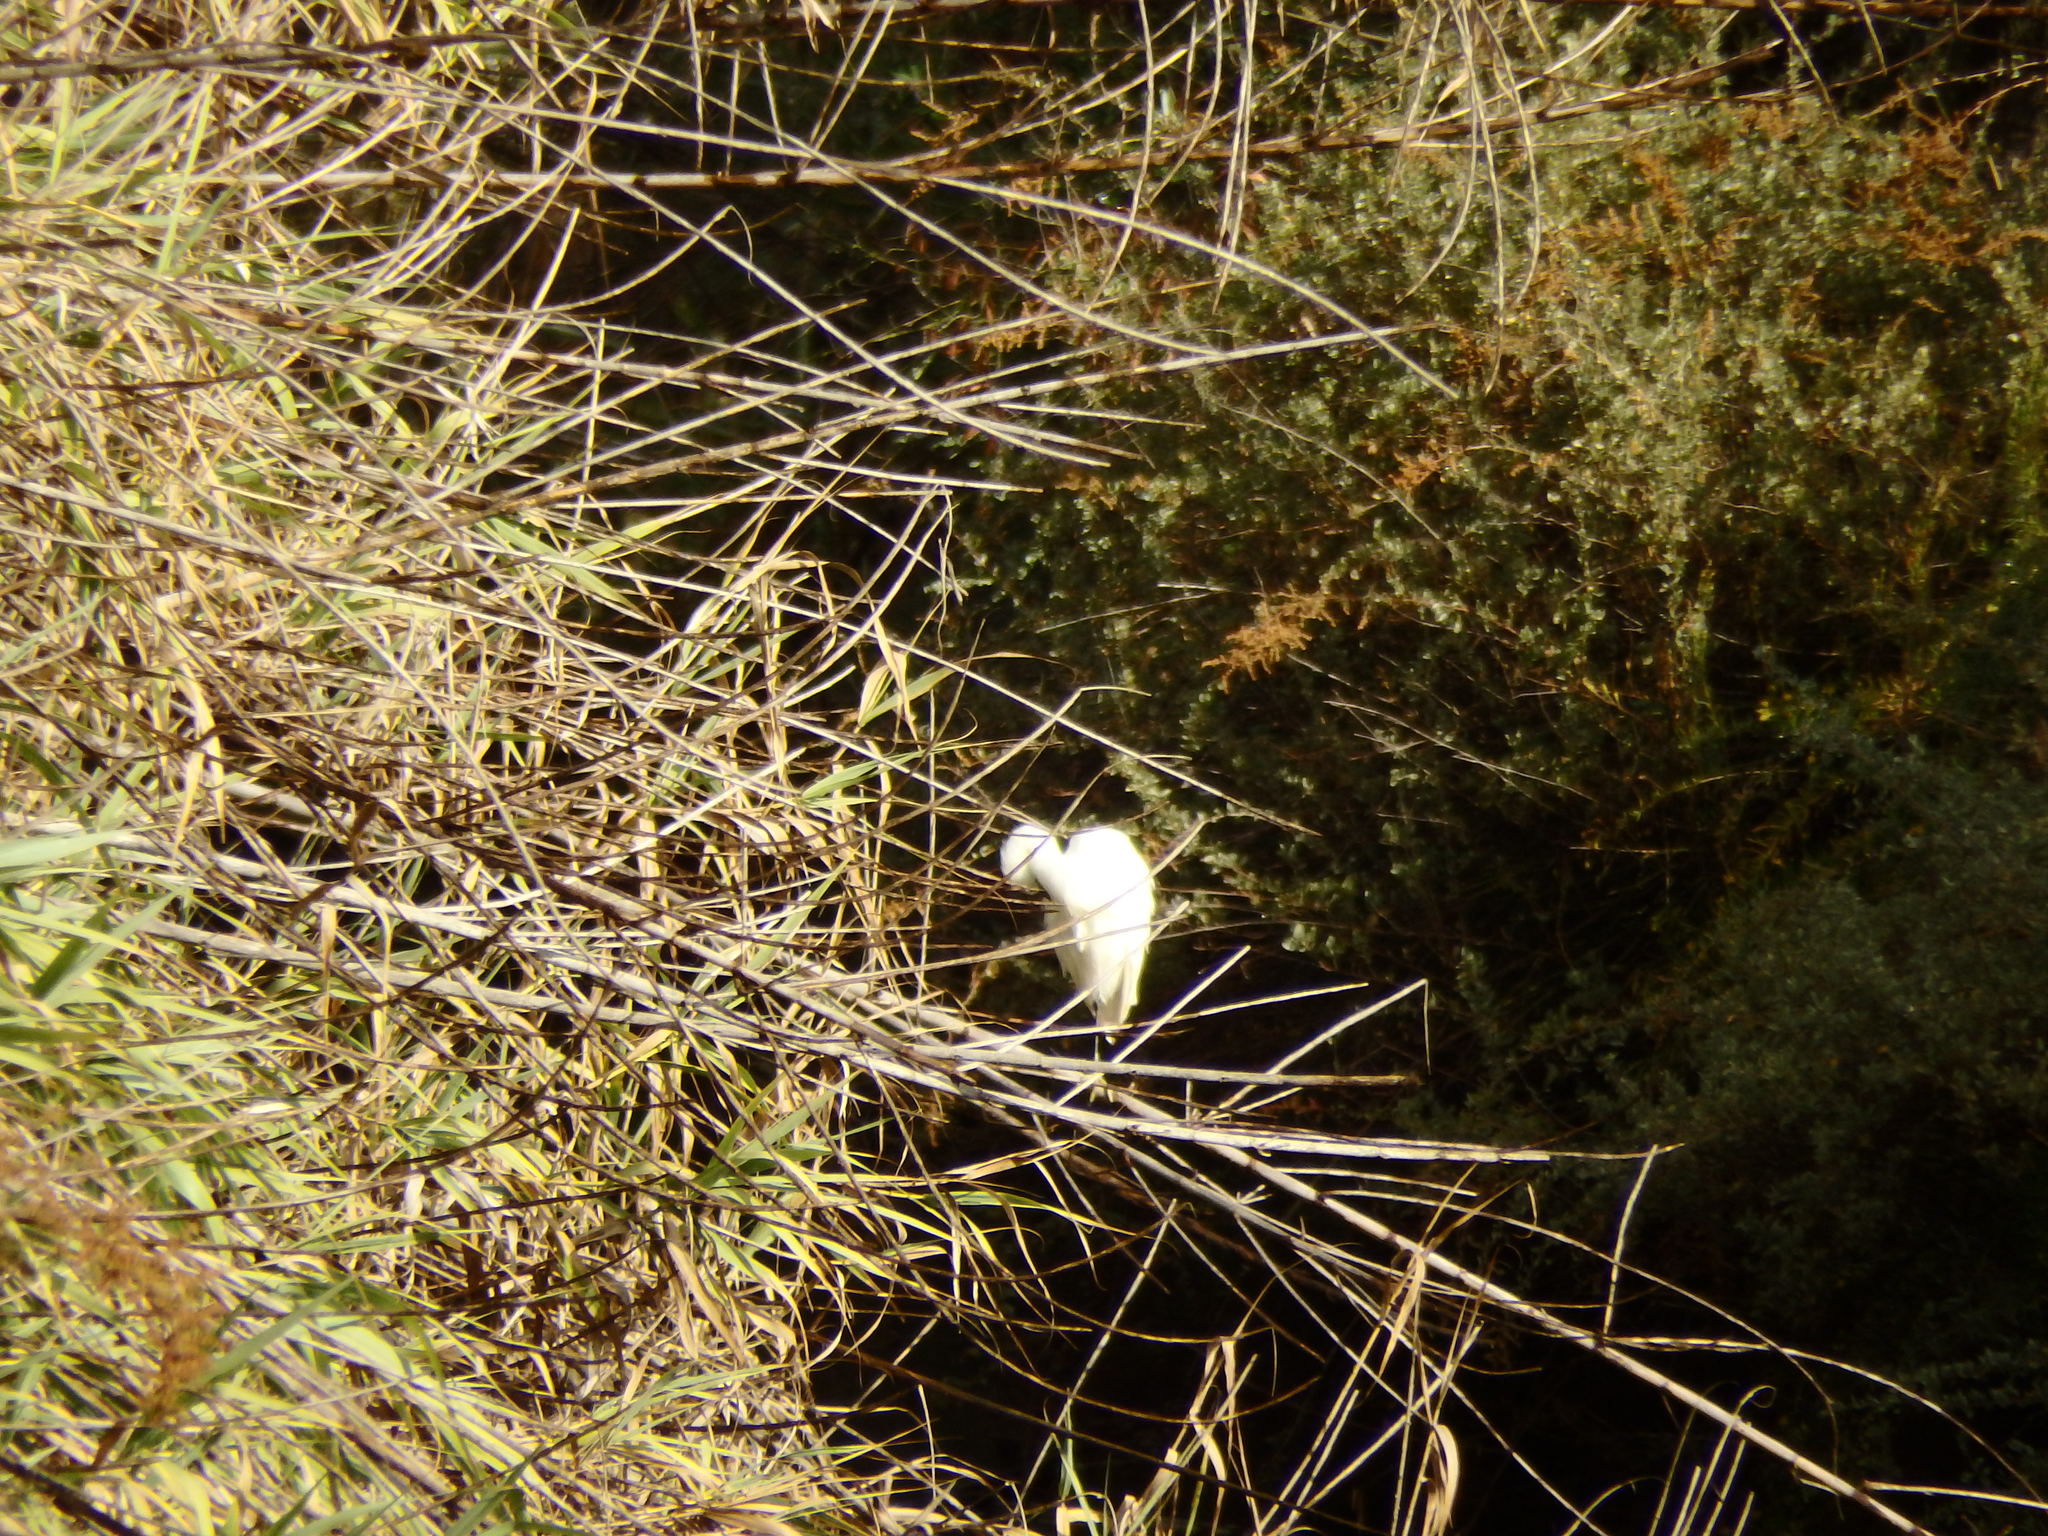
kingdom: Animalia
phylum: Chordata
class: Aves
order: Pelecaniformes
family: Ardeidae
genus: Egretta
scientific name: Egretta garzetta
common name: Little egret
